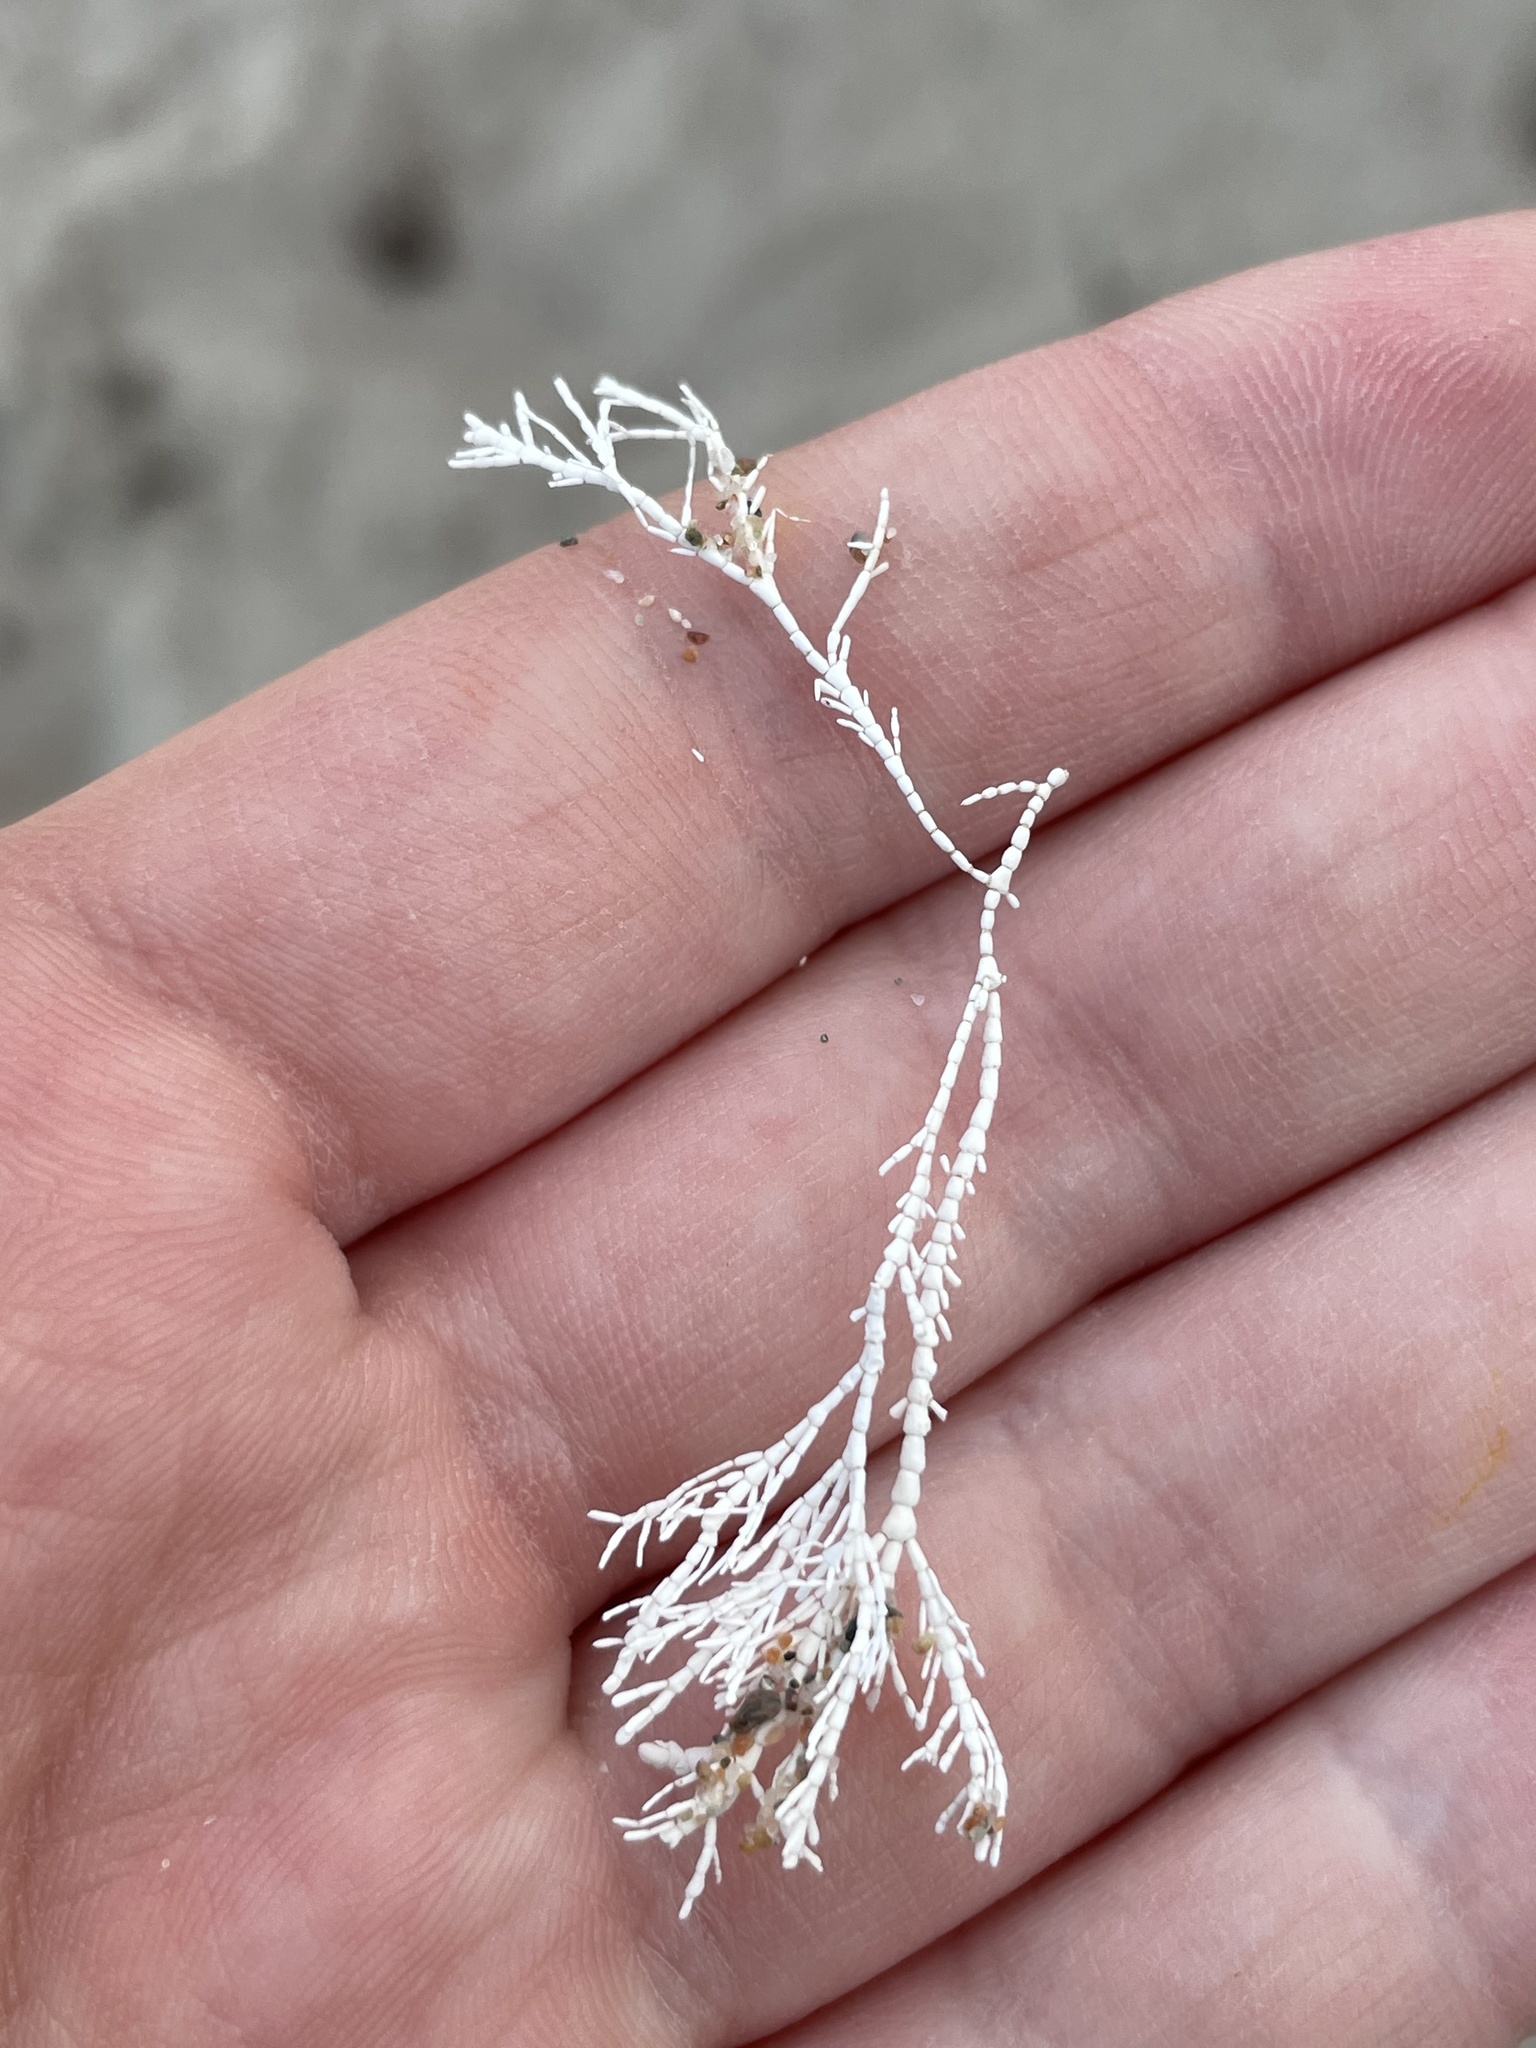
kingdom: Plantae
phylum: Rhodophyta
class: Florideophyceae
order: Corallinales
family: Corallinaceae
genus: Corallina
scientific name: Corallina officinalis
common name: Coral weed
